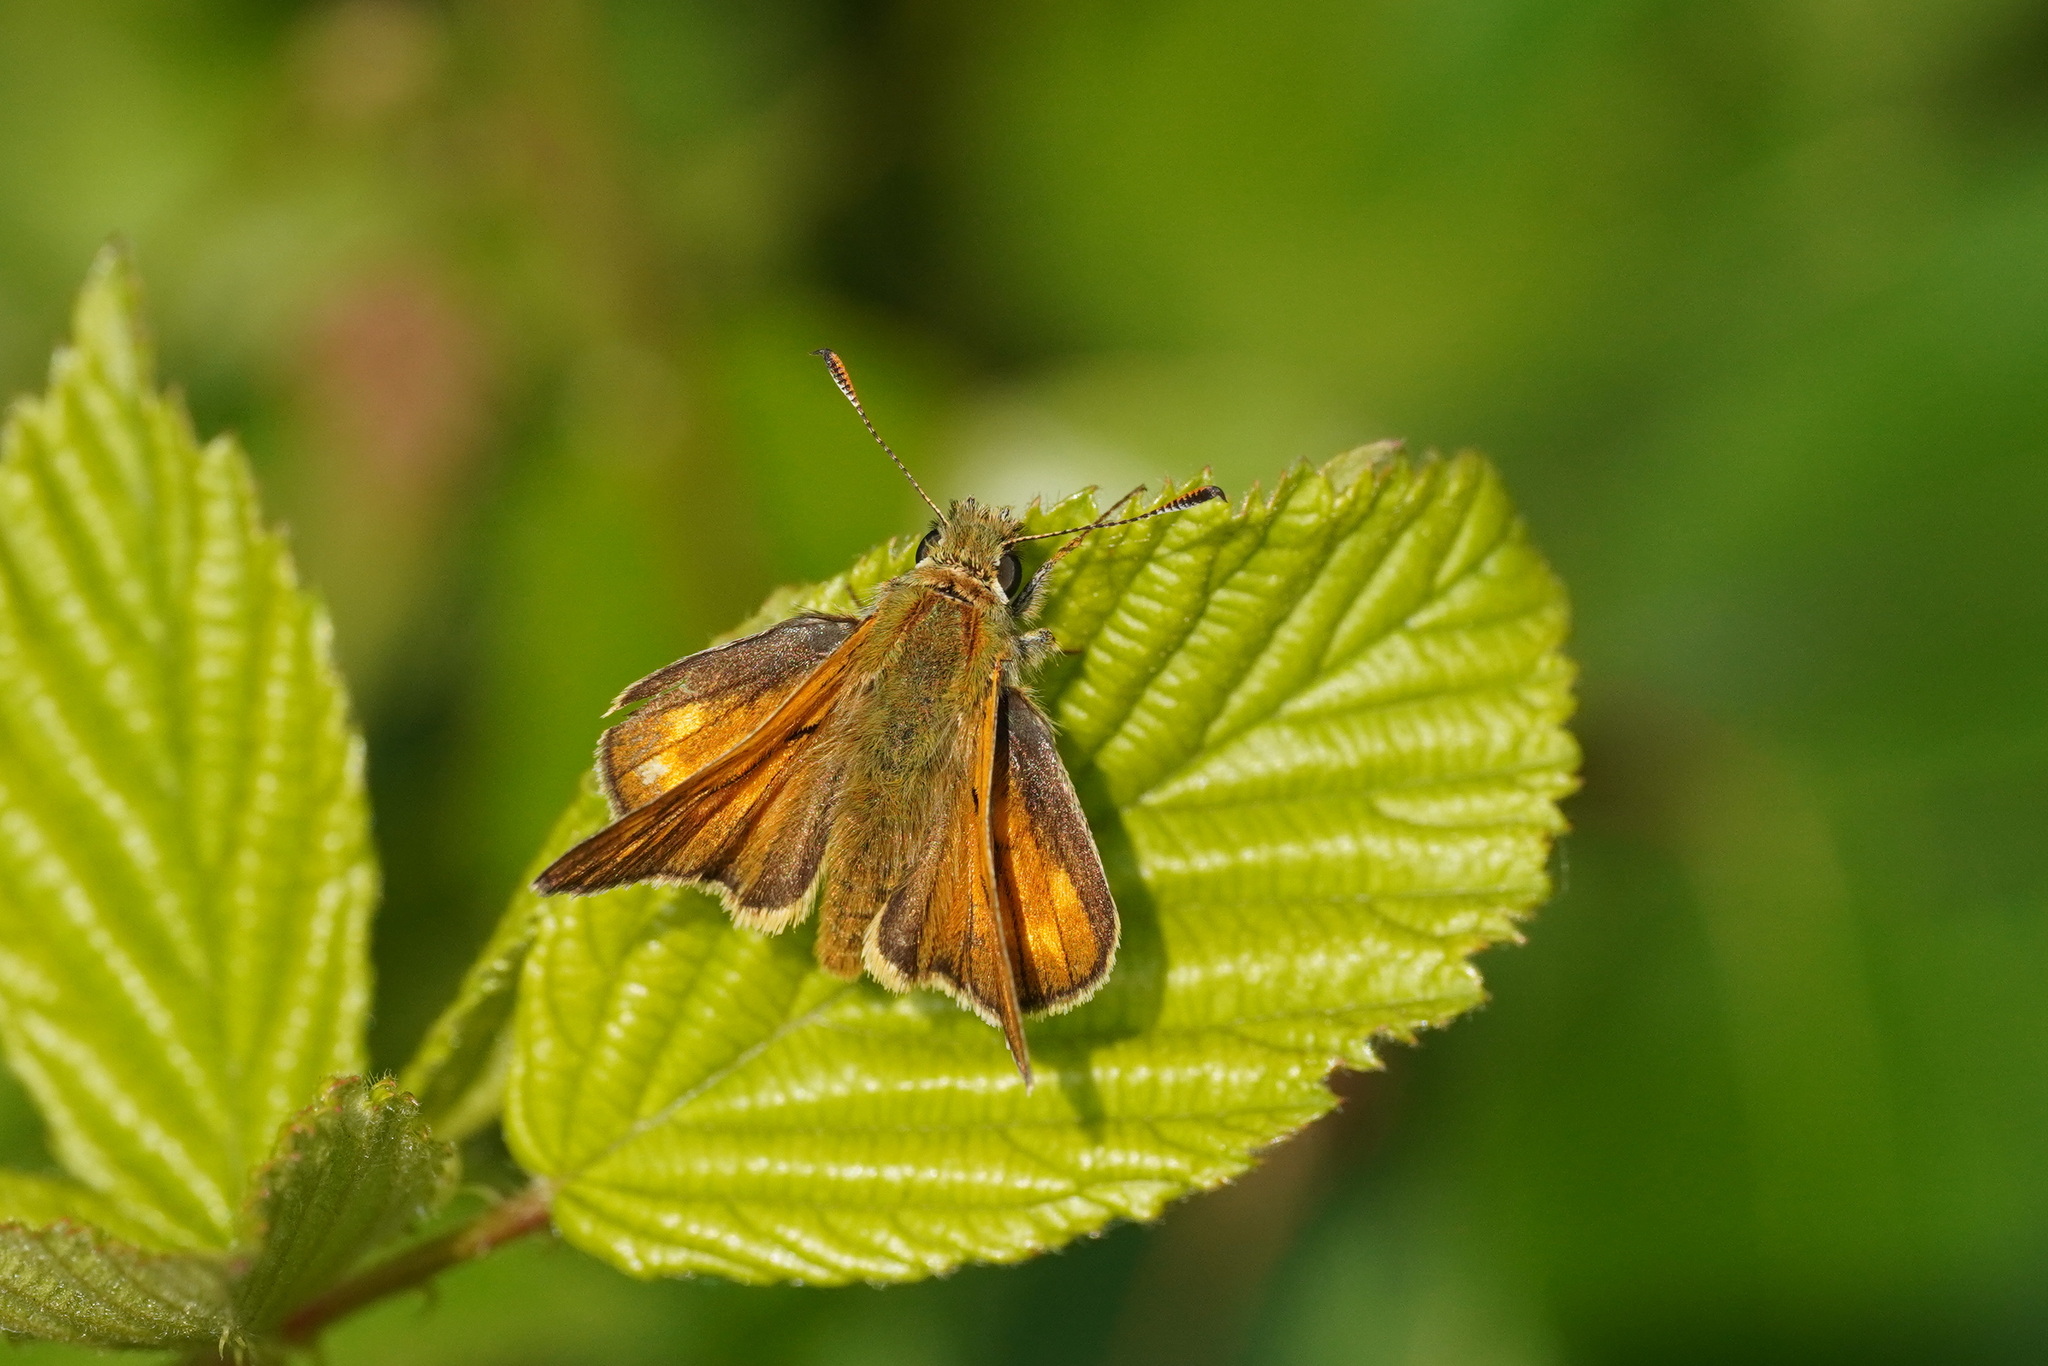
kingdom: Animalia
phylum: Arthropoda
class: Insecta
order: Lepidoptera
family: Hesperiidae
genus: Ochlodes
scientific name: Ochlodes venata
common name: Large skipper
